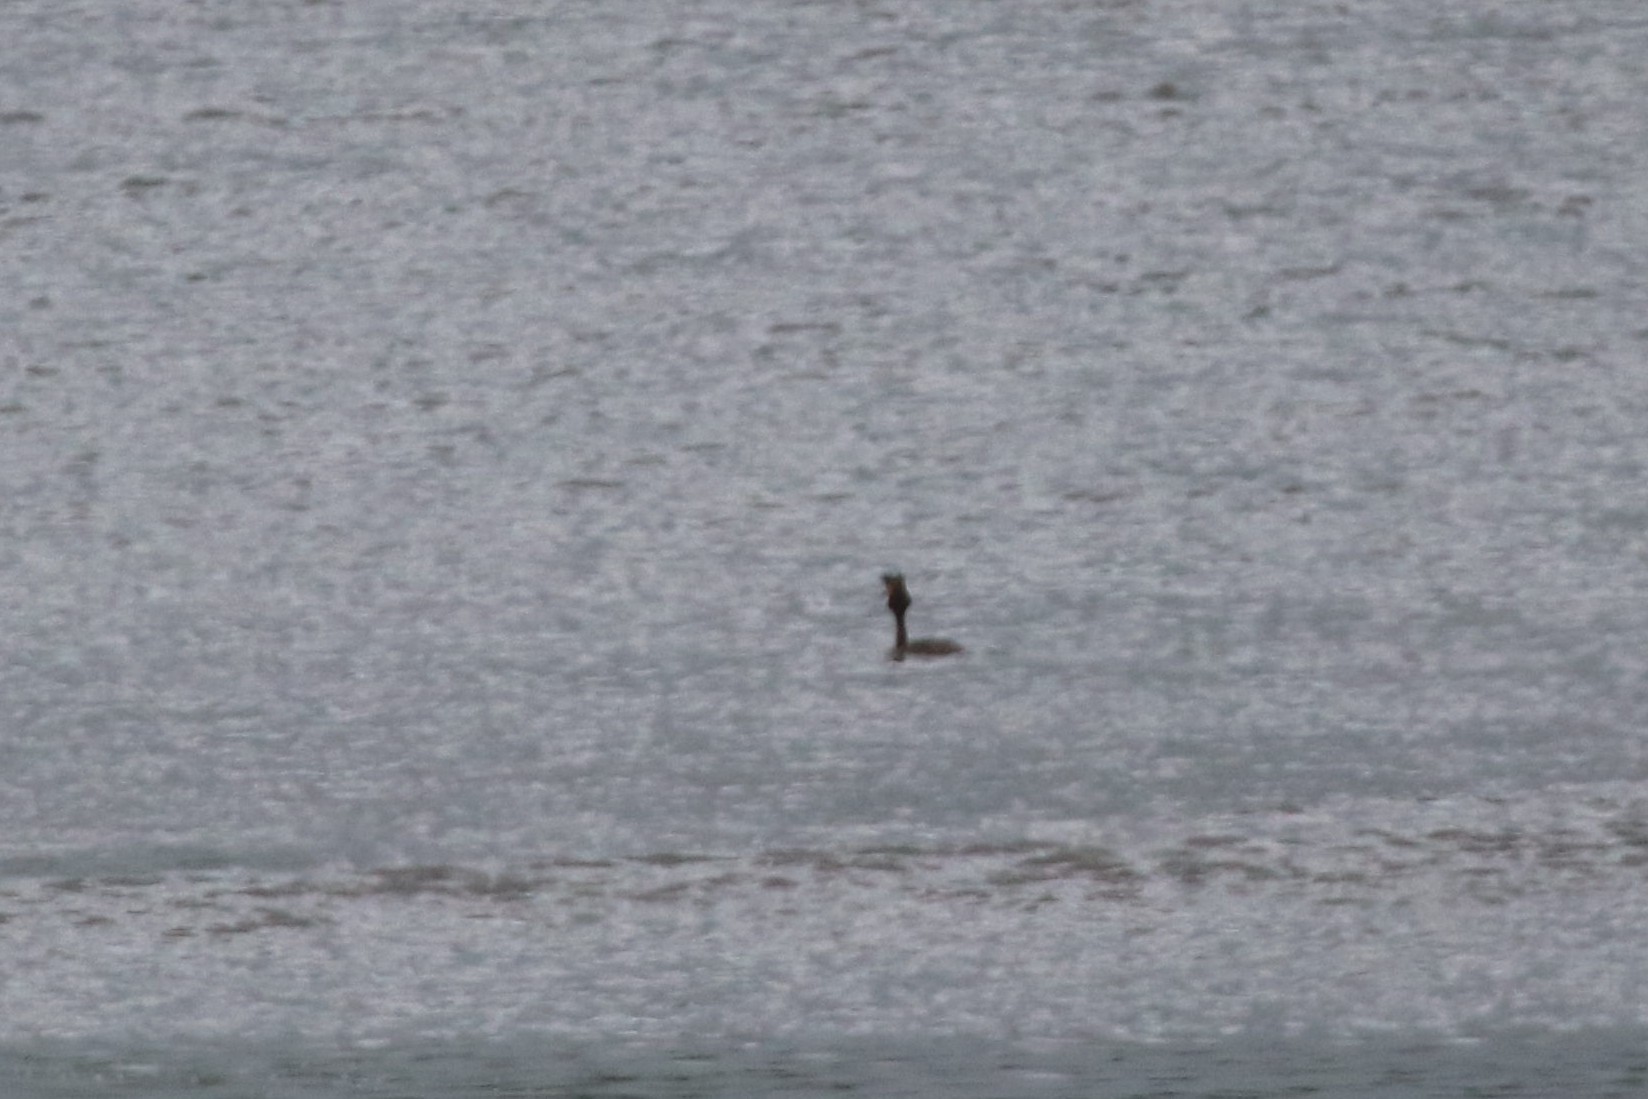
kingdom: Animalia
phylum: Chordata
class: Aves
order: Podicipediformes
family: Podicipedidae
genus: Podiceps
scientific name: Podiceps cristatus
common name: Great crested grebe
